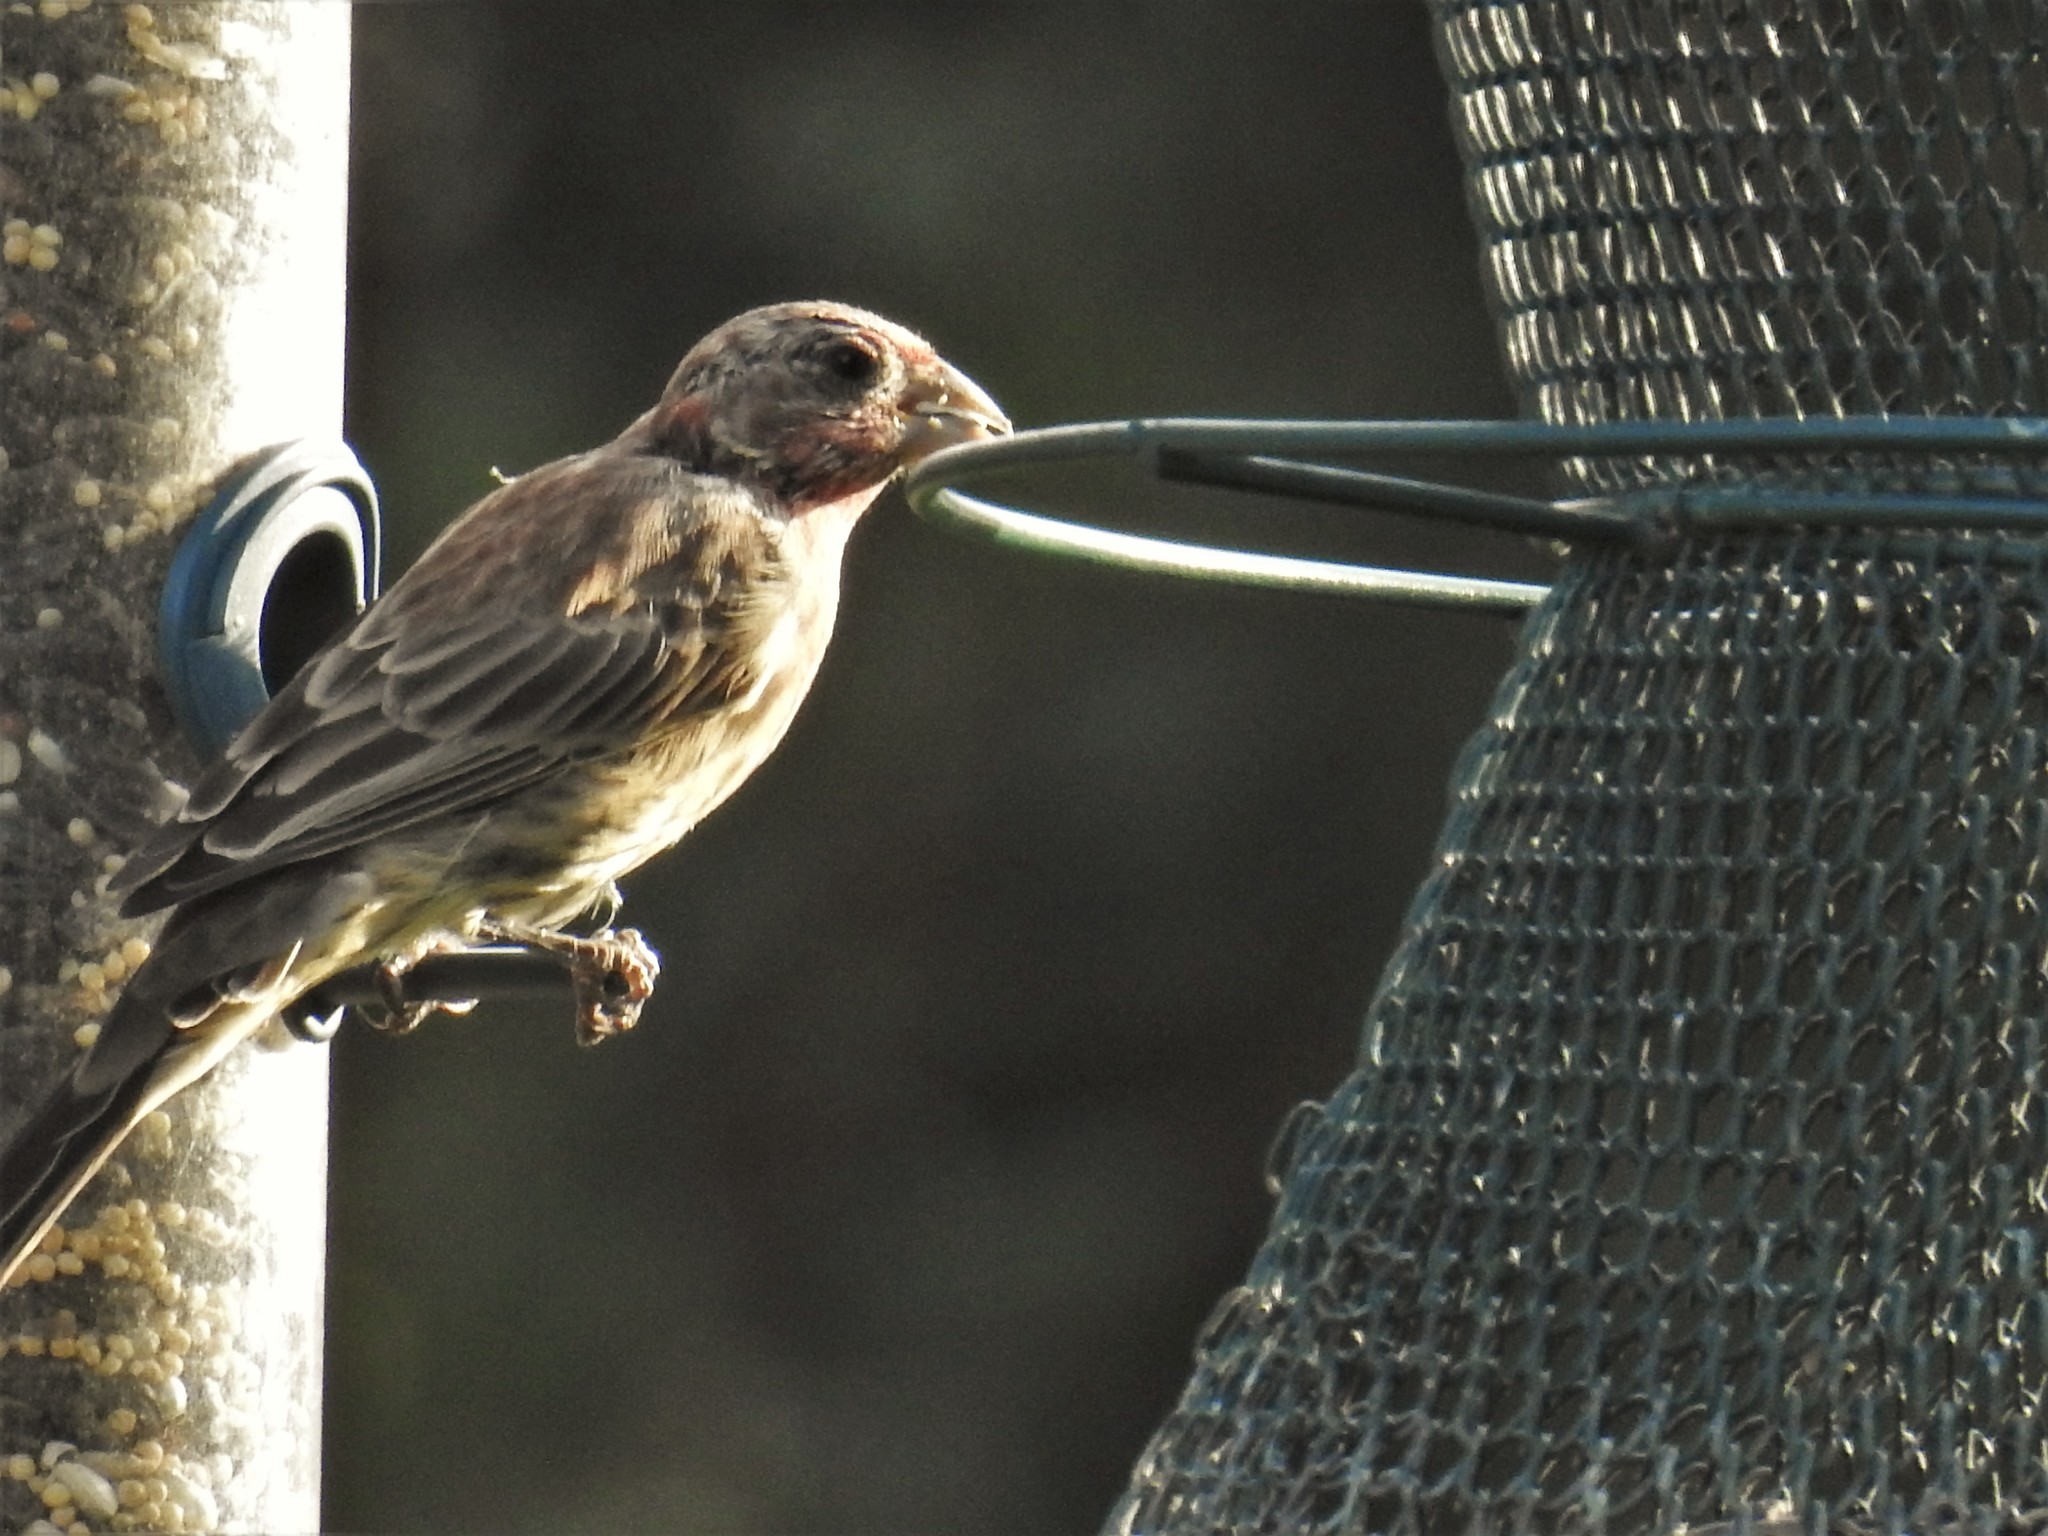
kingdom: Animalia
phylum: Chordata
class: Aves
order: Passeriformes
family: Fringillidae
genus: Haemorhous
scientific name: Haemorhous mexicanus
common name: House finch
